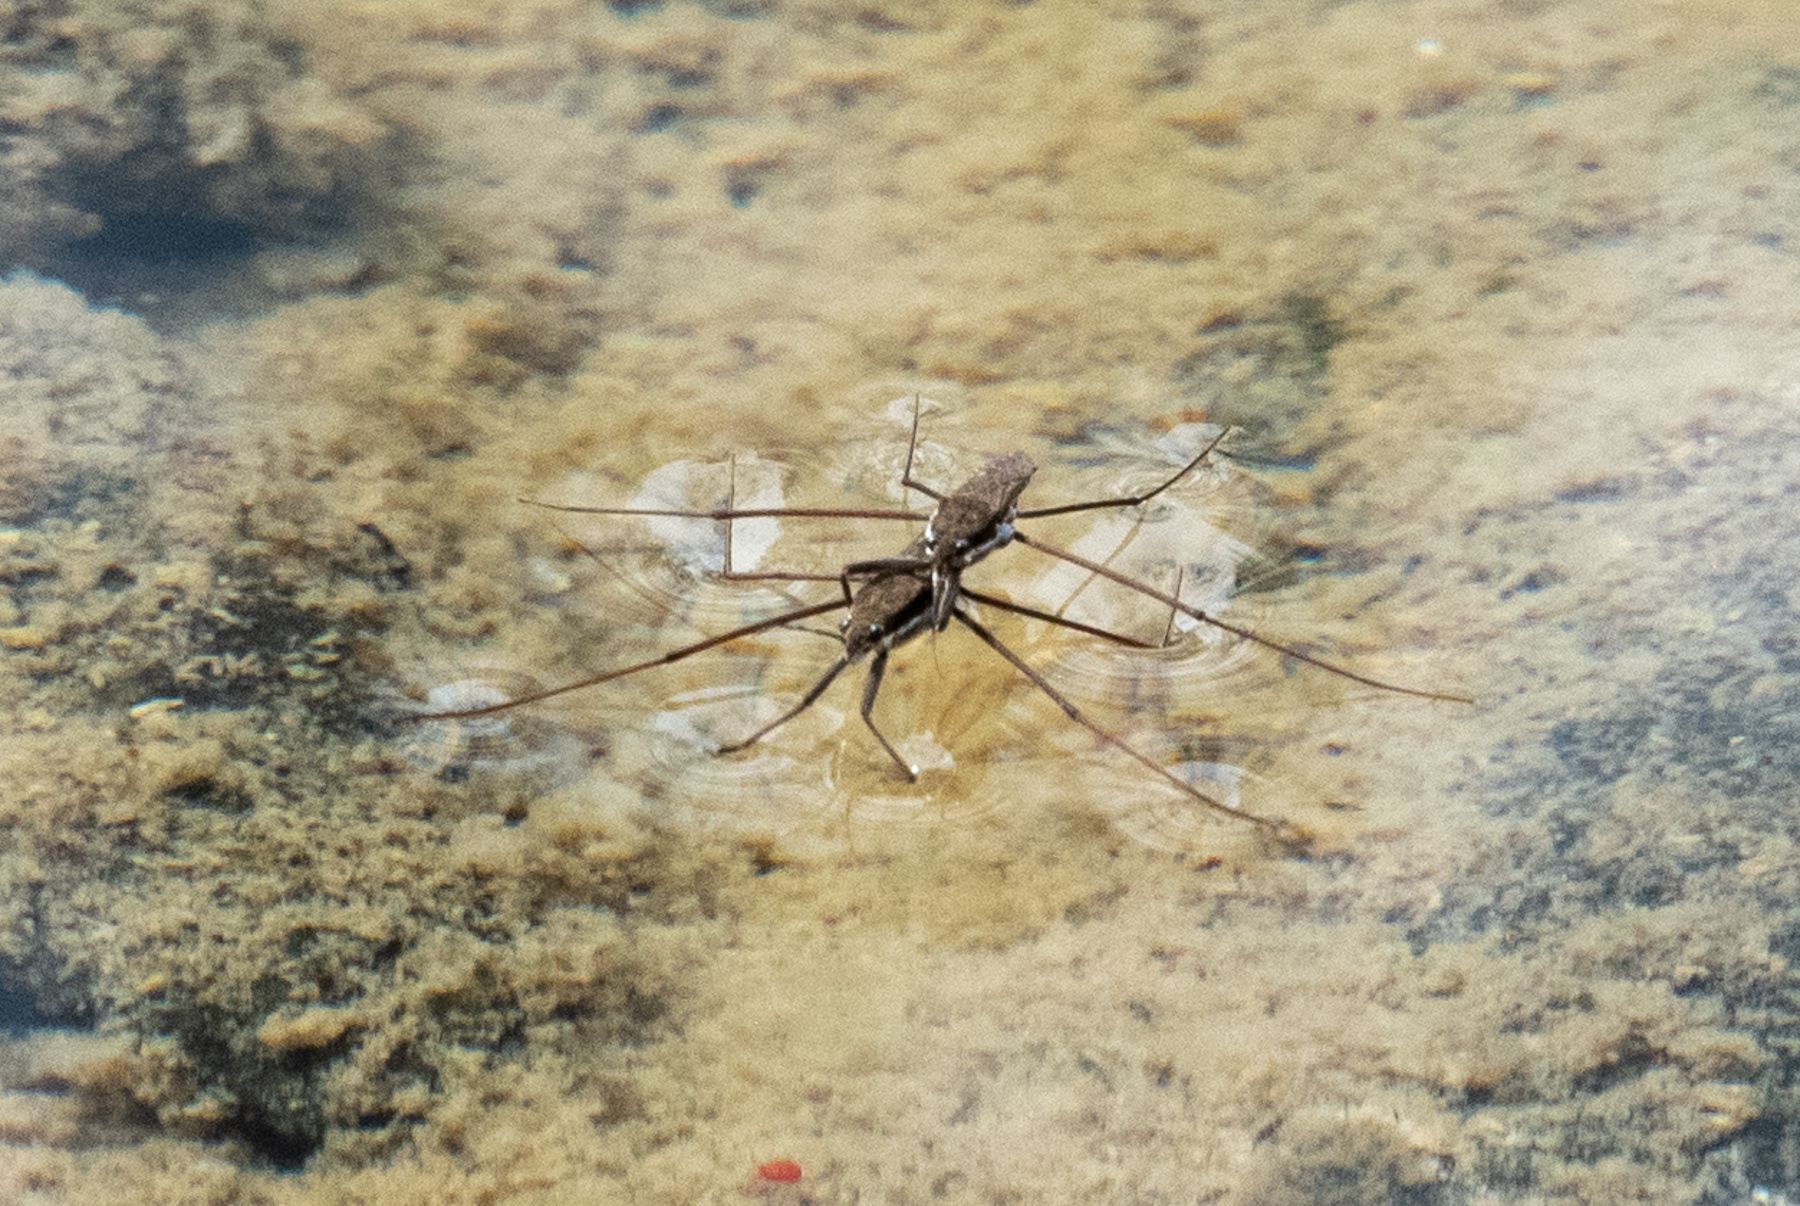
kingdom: Animalia
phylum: Arthropoda
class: Insecta
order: Hemiptera
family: Gerridae
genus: Aquarius
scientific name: Aquarius remigis
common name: Common water strider
